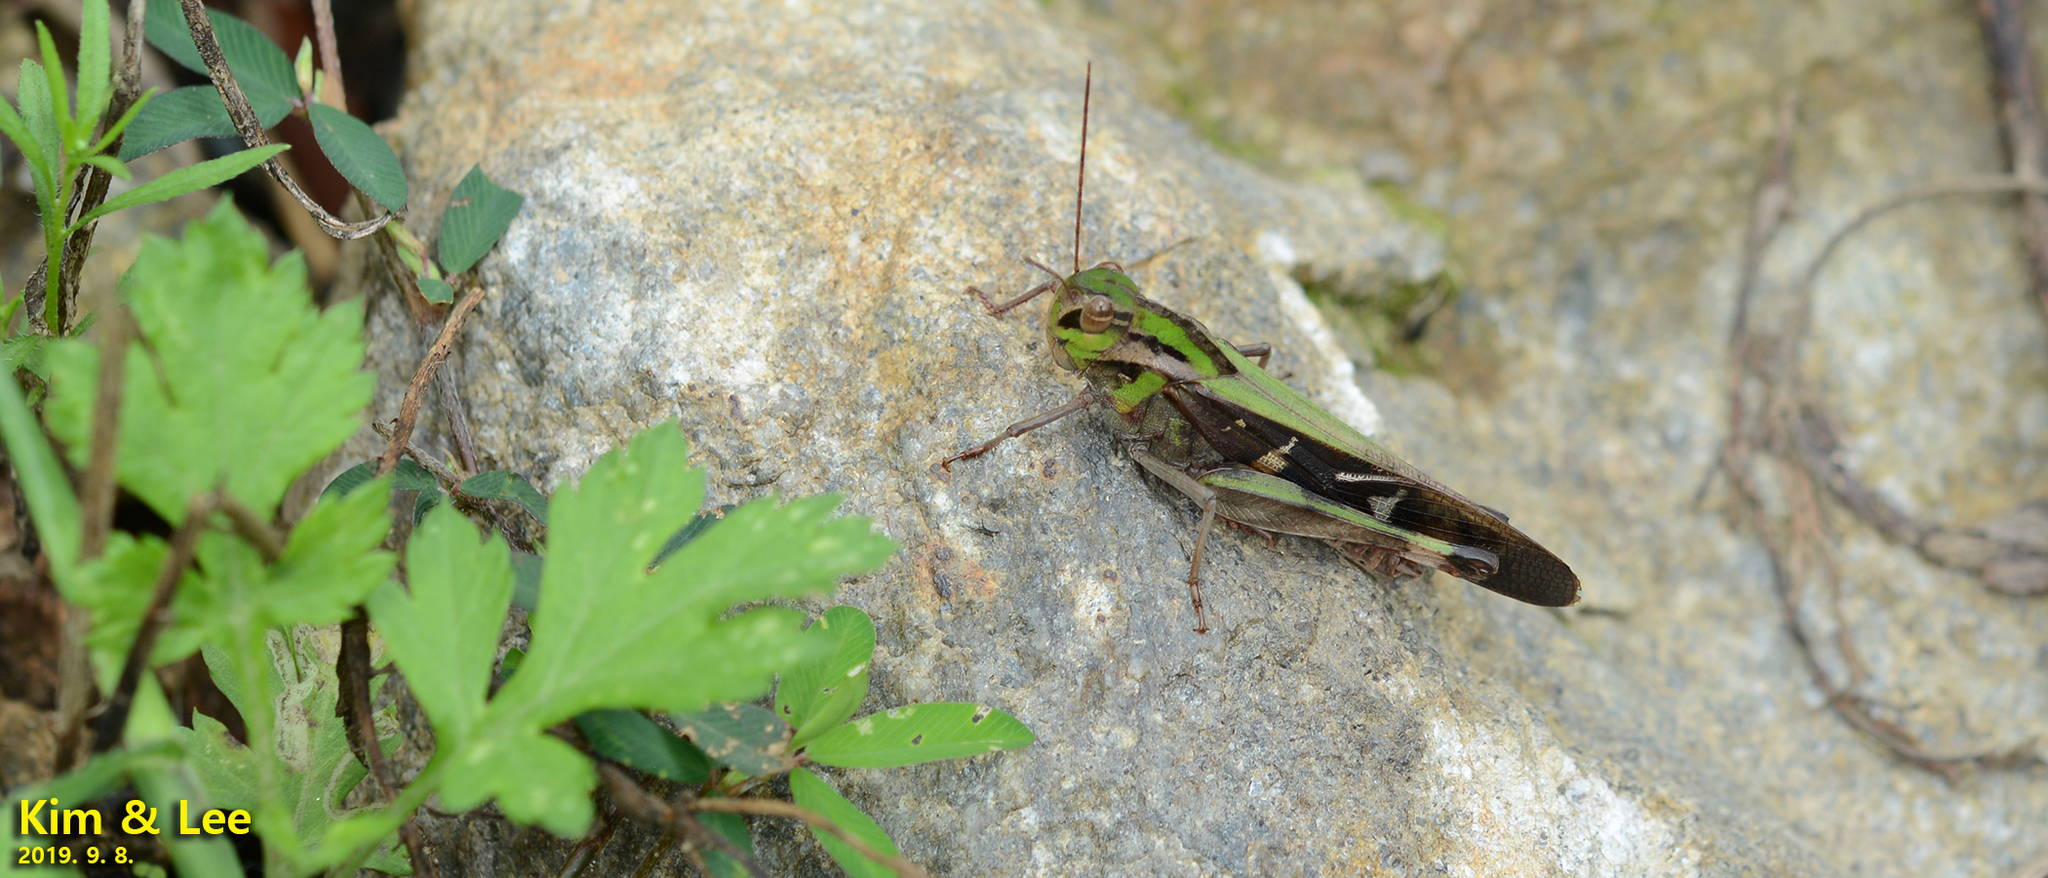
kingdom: Animalia
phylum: Arthropoda
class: Insecta
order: Orthoptera
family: Acrididae
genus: Gastrimargus
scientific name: Gastrimargus marmoratus
